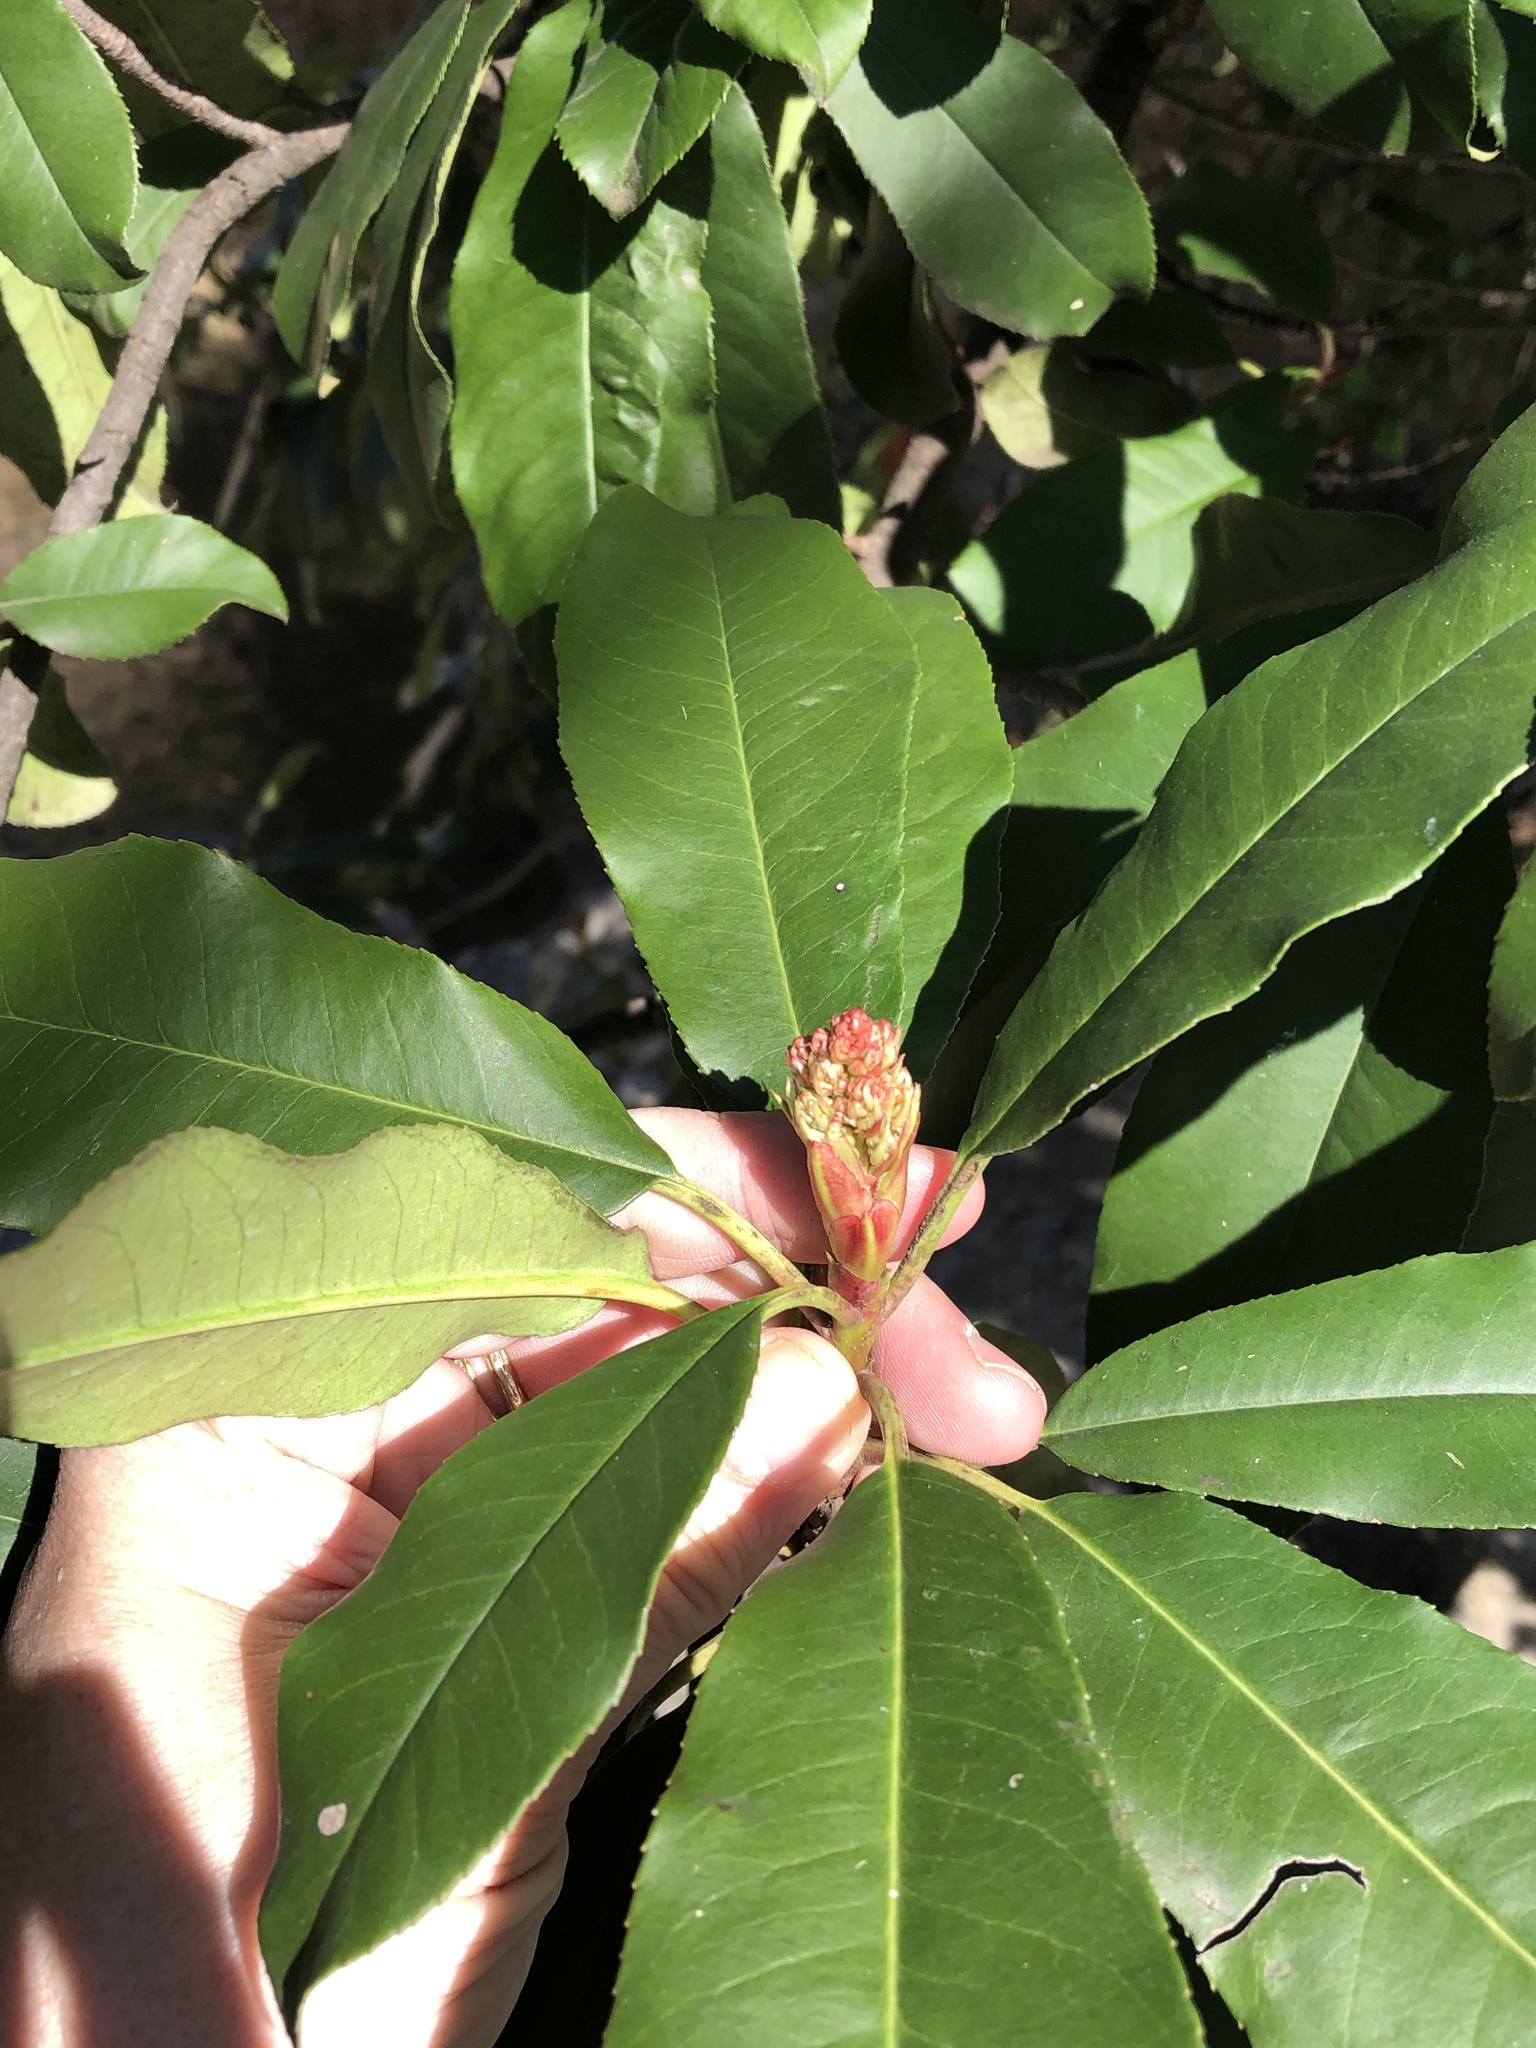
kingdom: Plantae
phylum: Tracheophyta
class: Magnoliopsida
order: Rosales
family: Rosaceae
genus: Photinia
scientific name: Photinia serratifolia
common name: Taiwanese photinia
